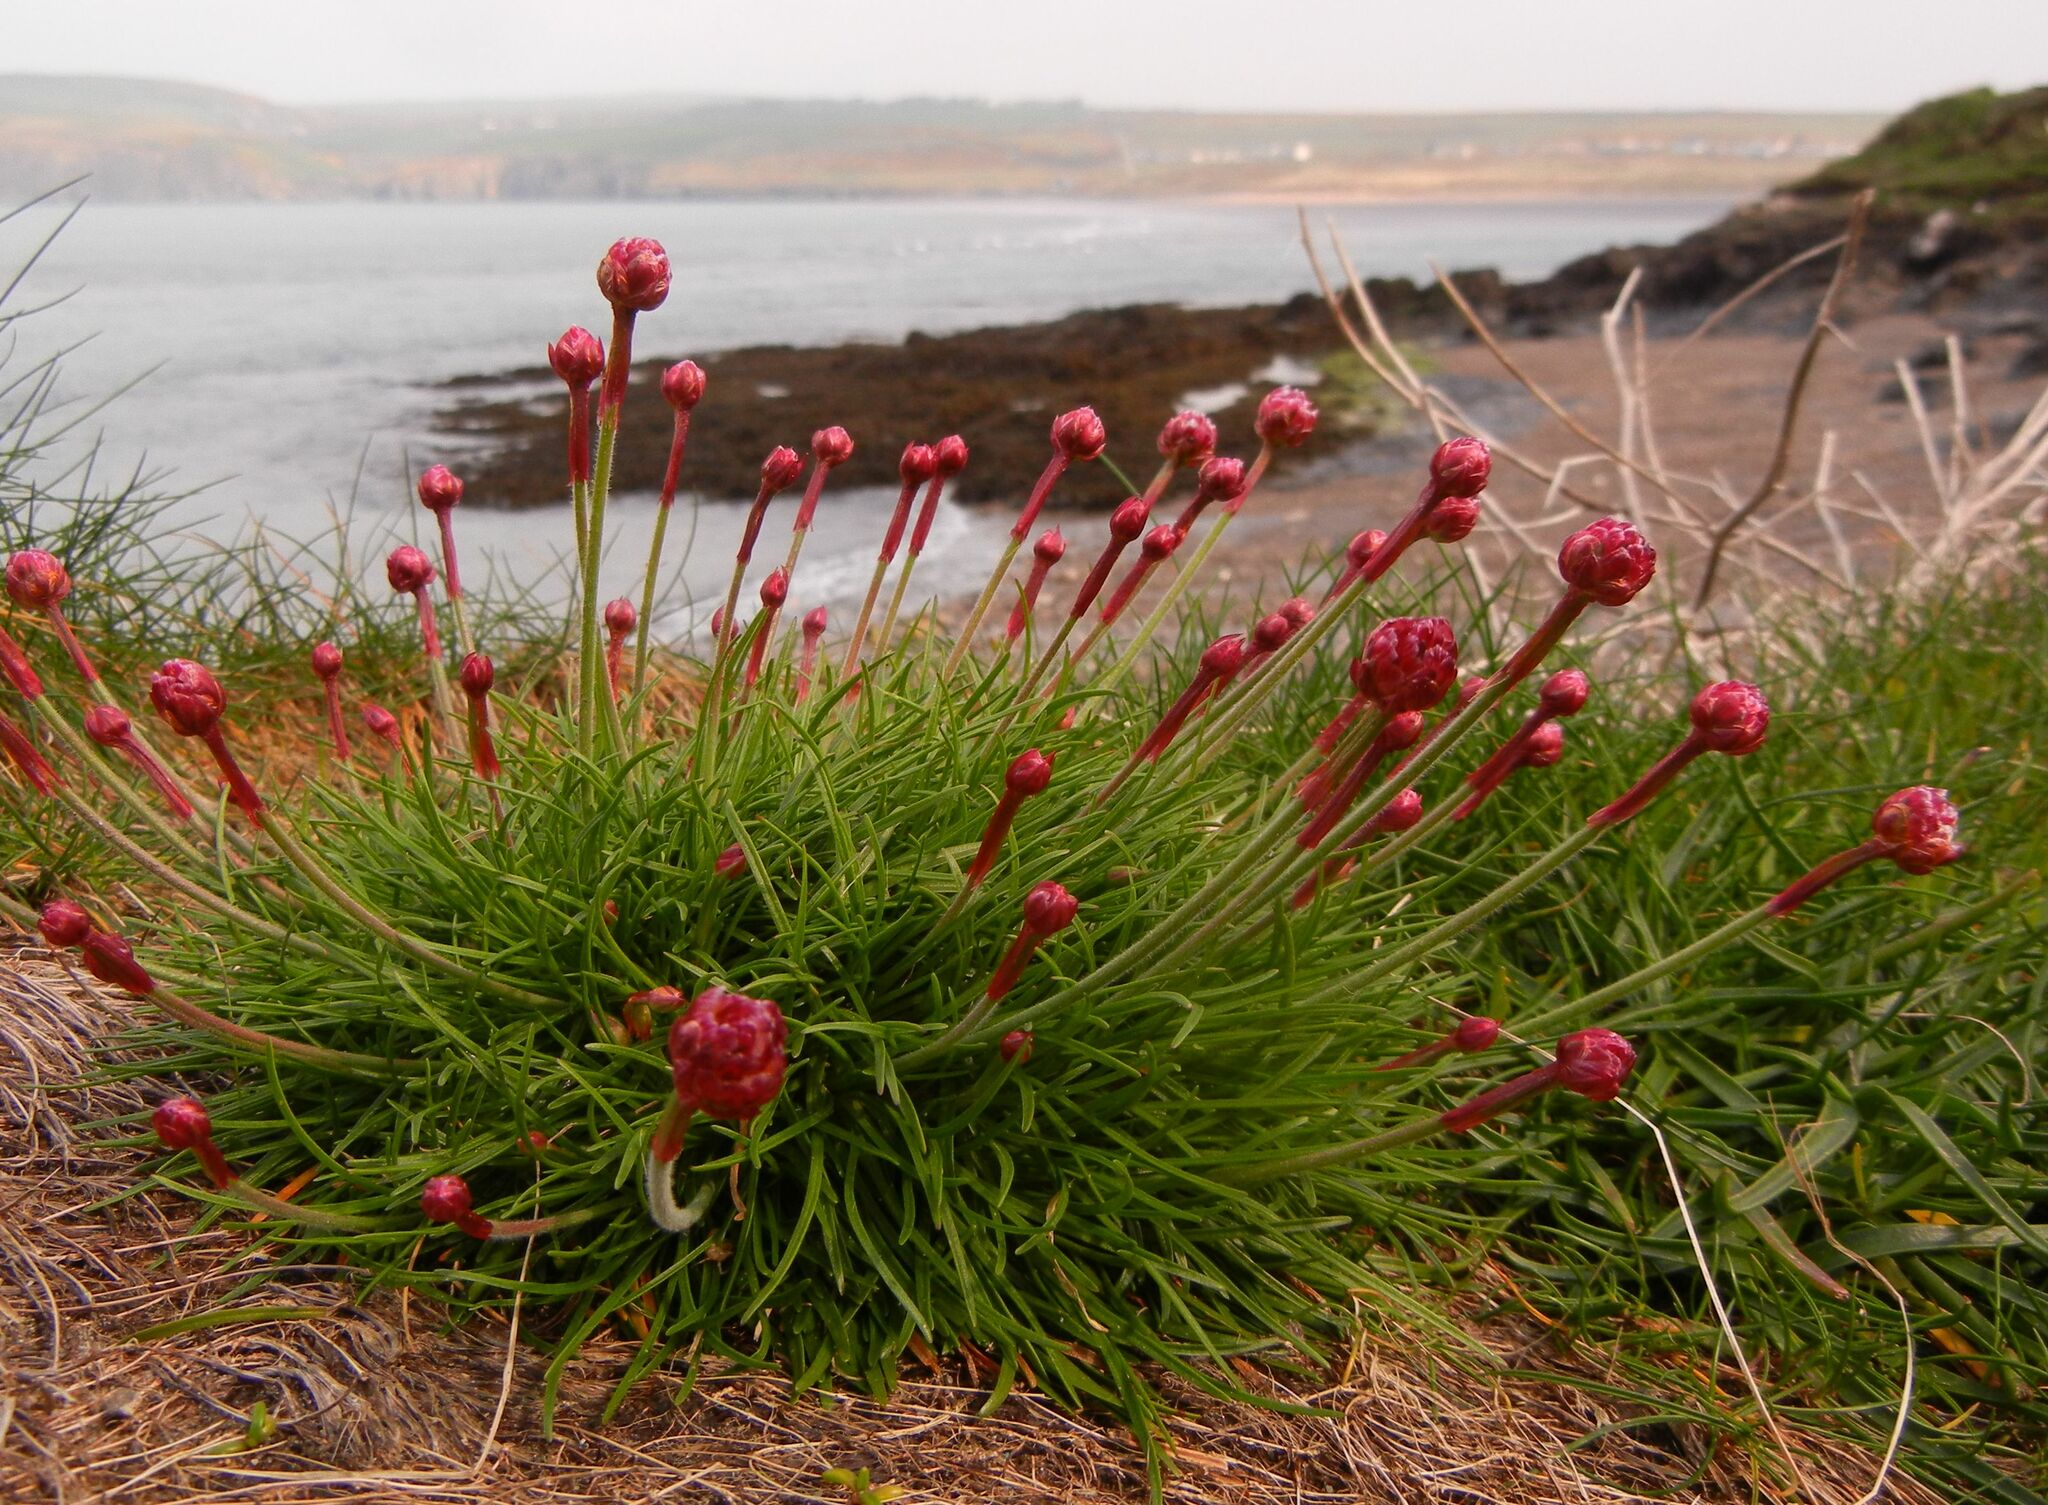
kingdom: Plantae
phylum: Tracheophyta
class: Magnoliopsida
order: Caryophyllales
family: Plumbaginaceae
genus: Armeria
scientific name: Armeria maritima
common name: Thrift
